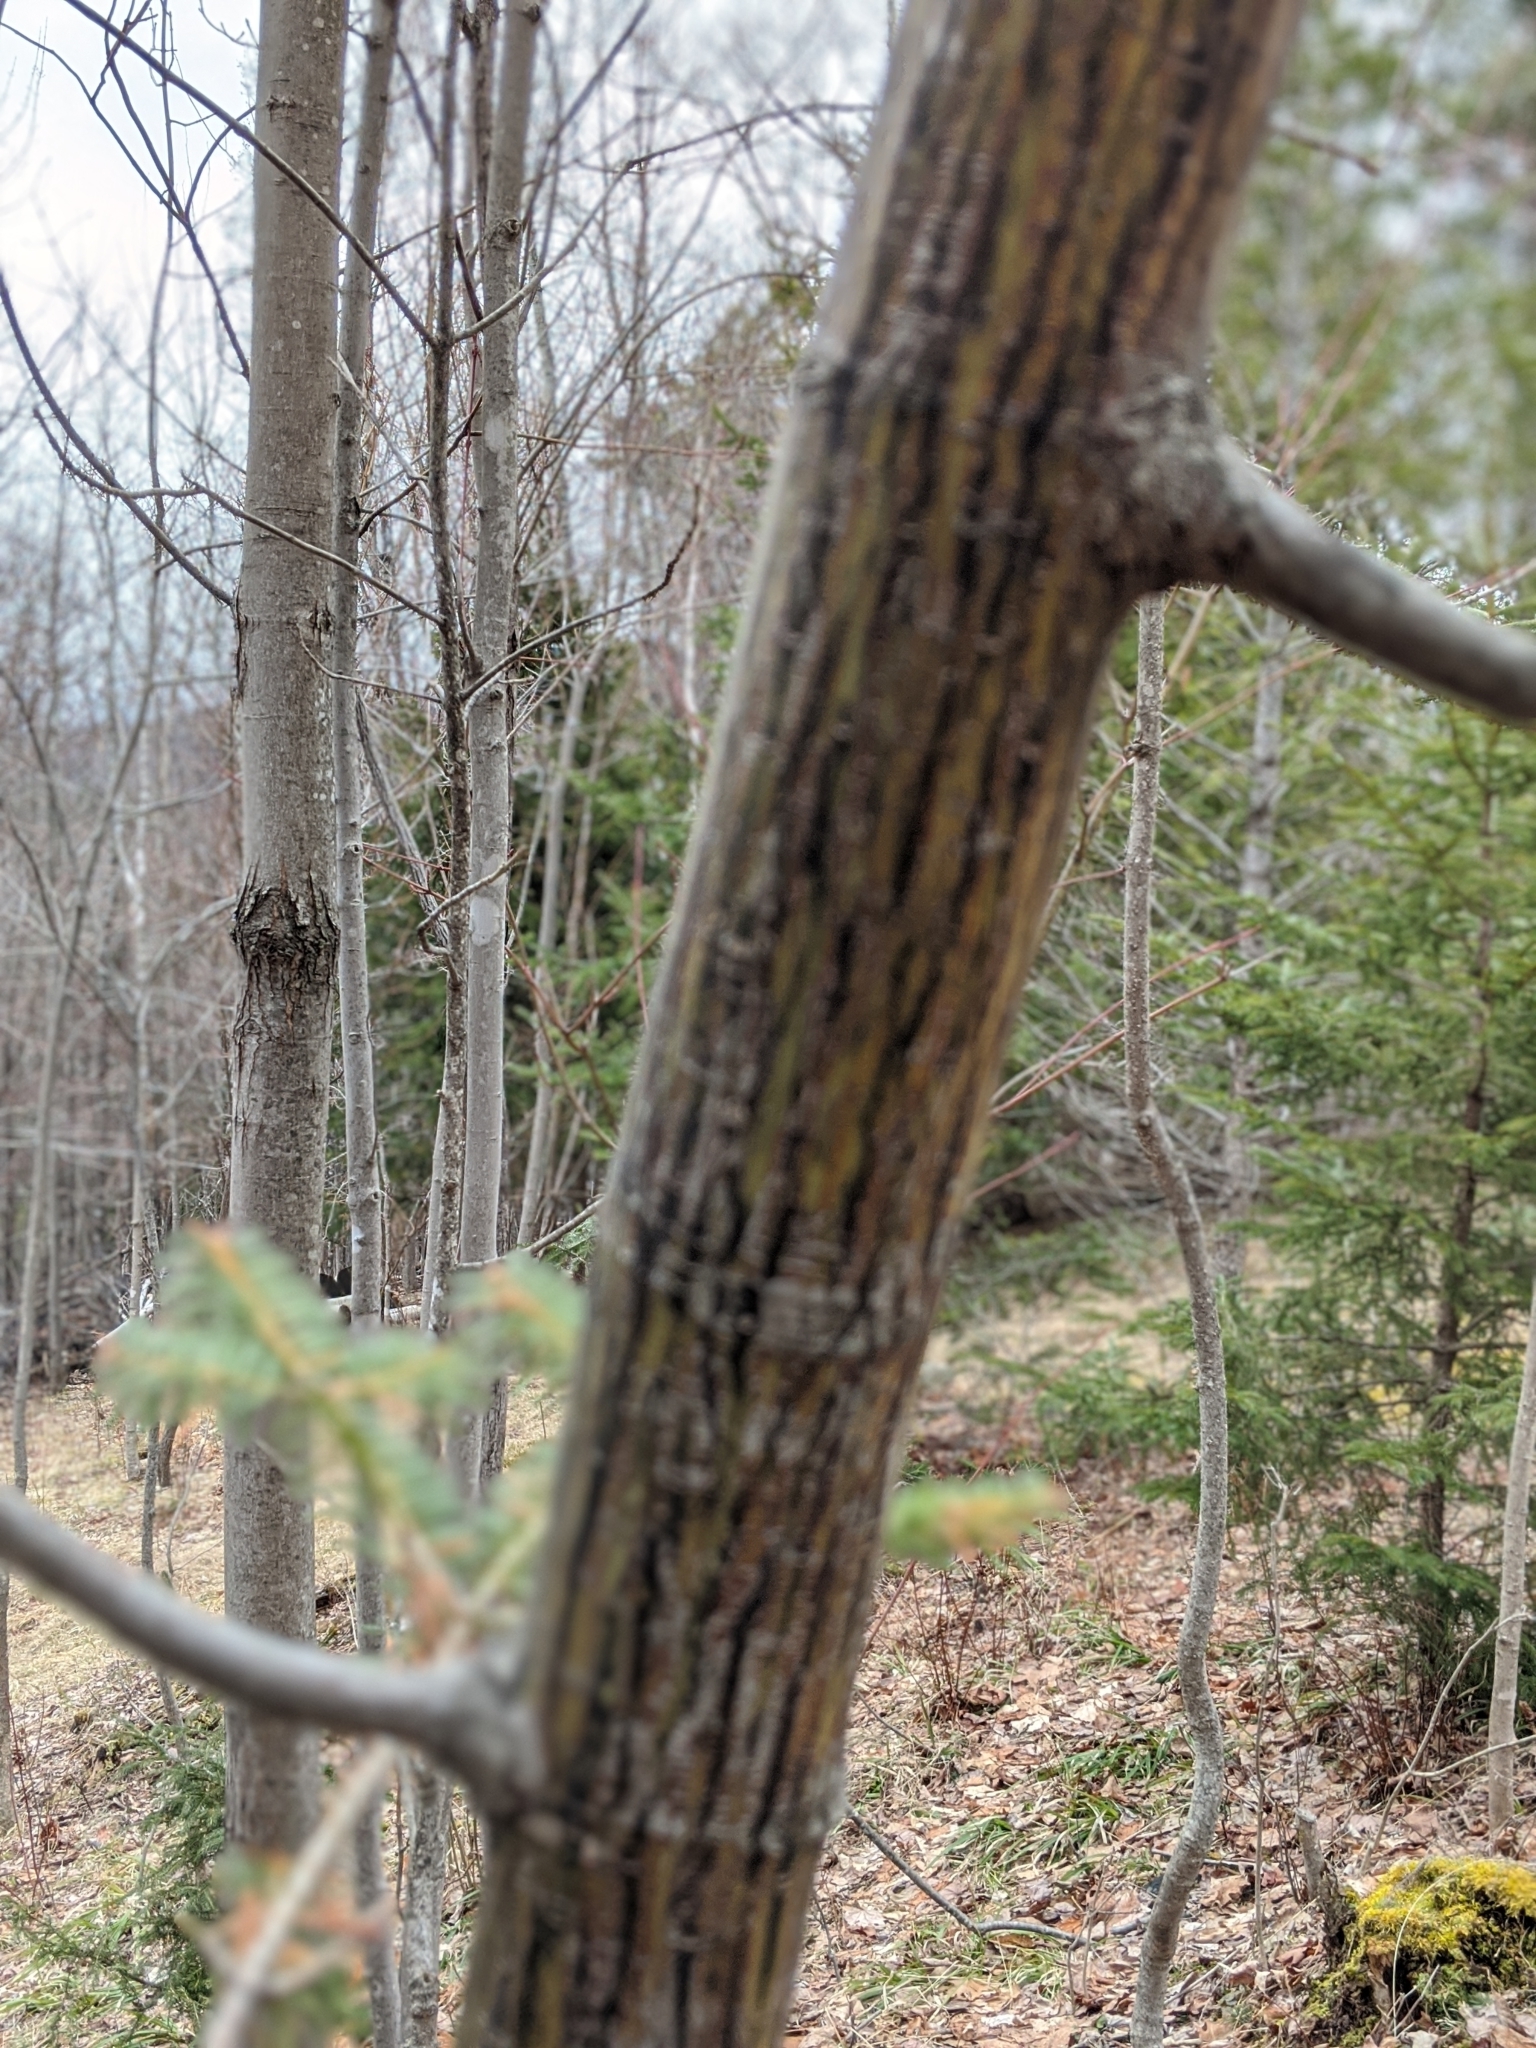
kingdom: Plantae
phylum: Tracheophyta
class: Magnoliopsida
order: Sapindales
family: Sapindaceae
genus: Acer
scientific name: Acer pensylvanicum
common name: Moosewood
